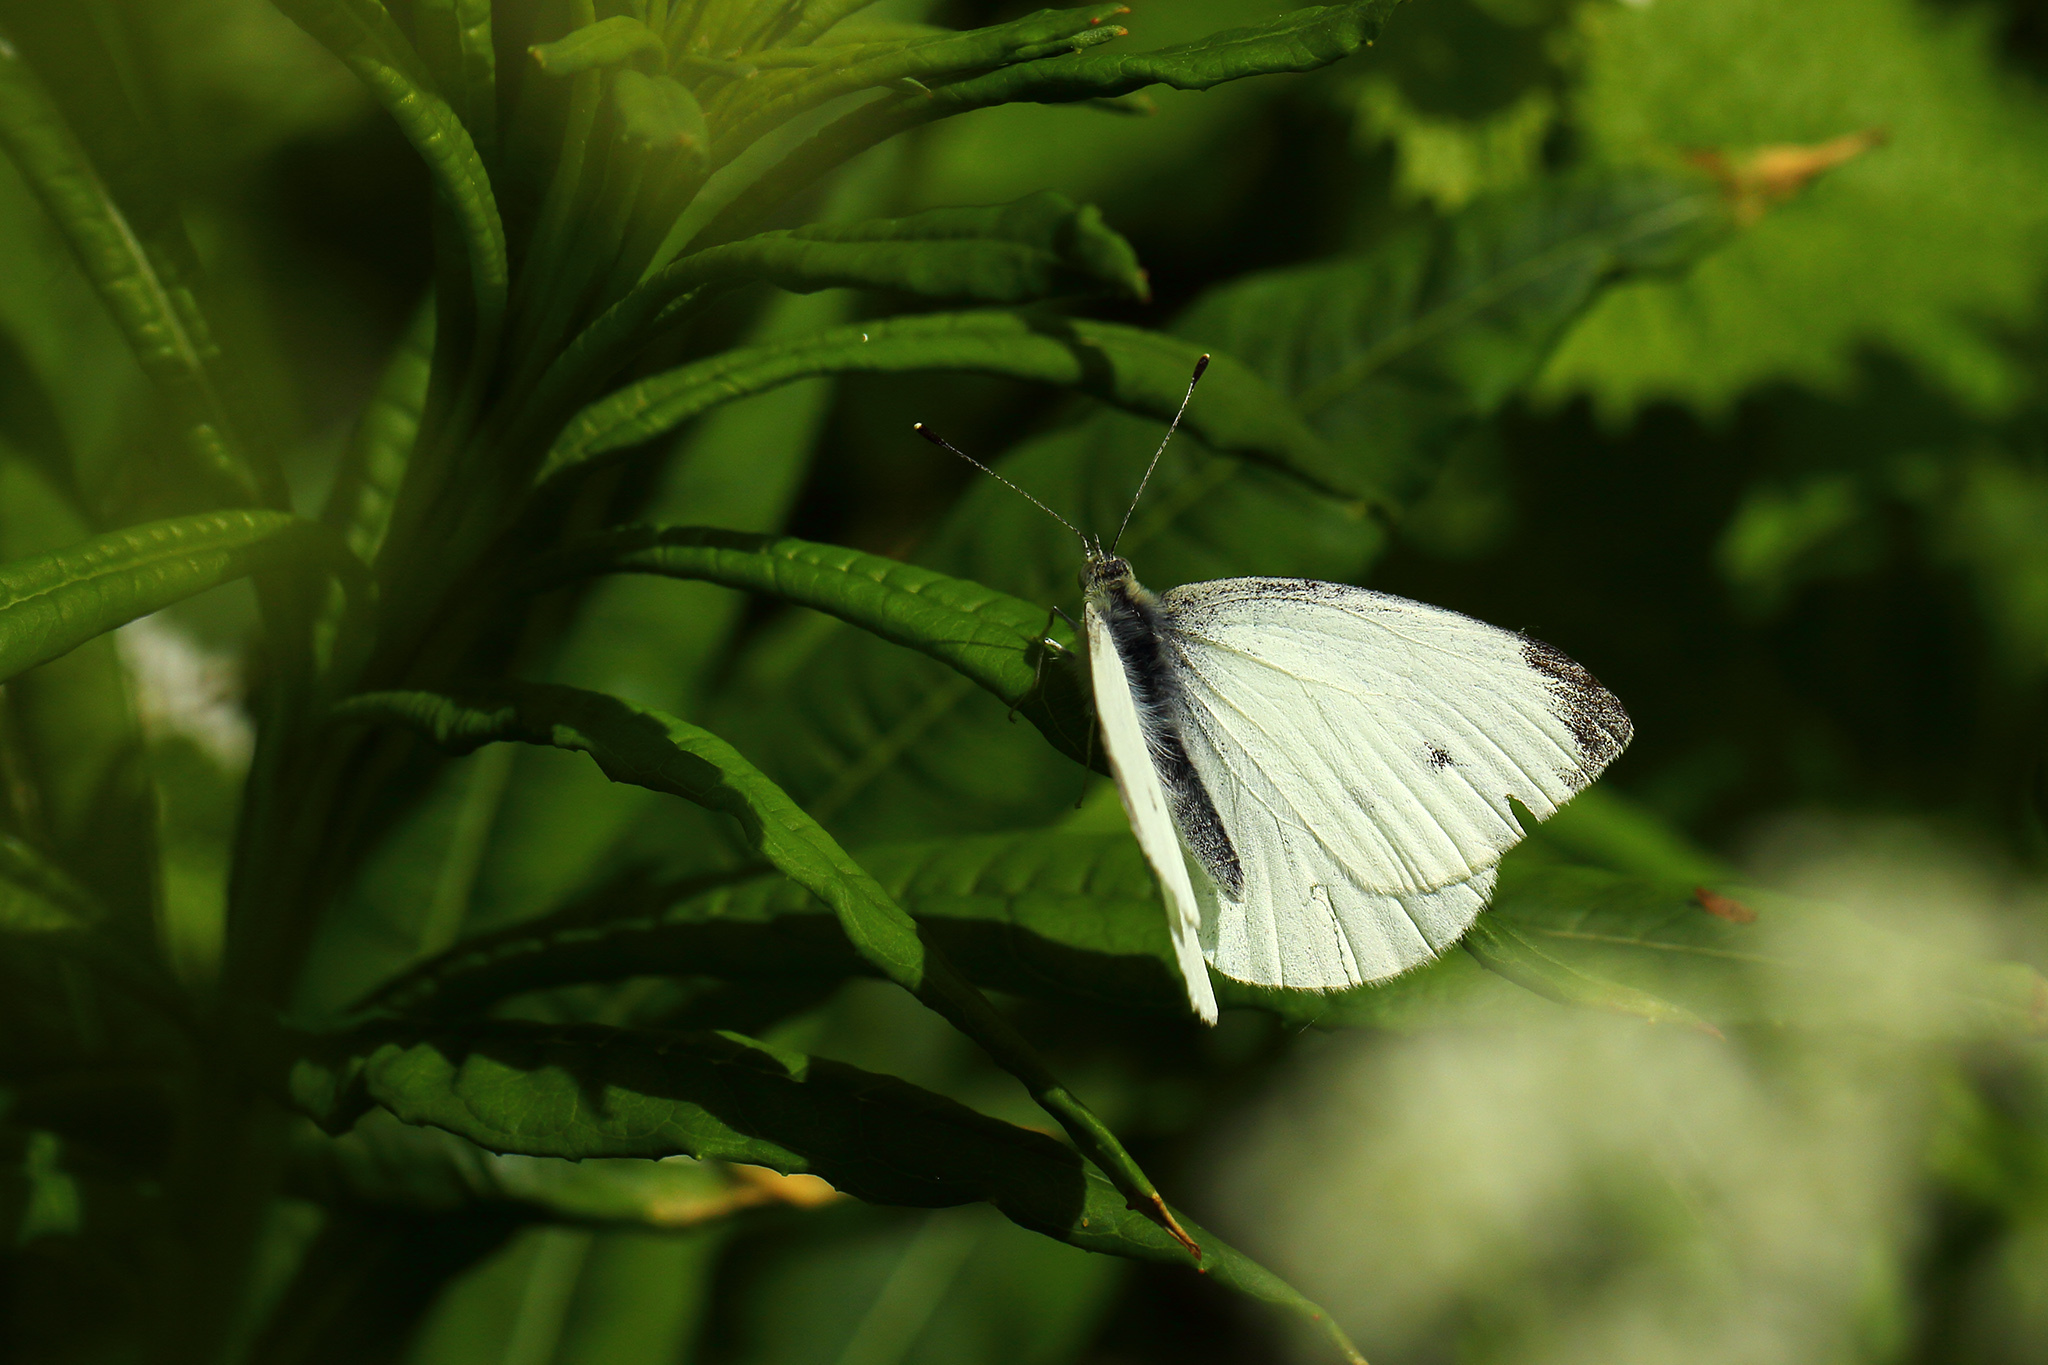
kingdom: Animalia
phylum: Arthropoda
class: Insecta
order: Lepidoptera
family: Pieridae
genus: Pieris
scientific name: Pieris napi
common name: Green-veined white
